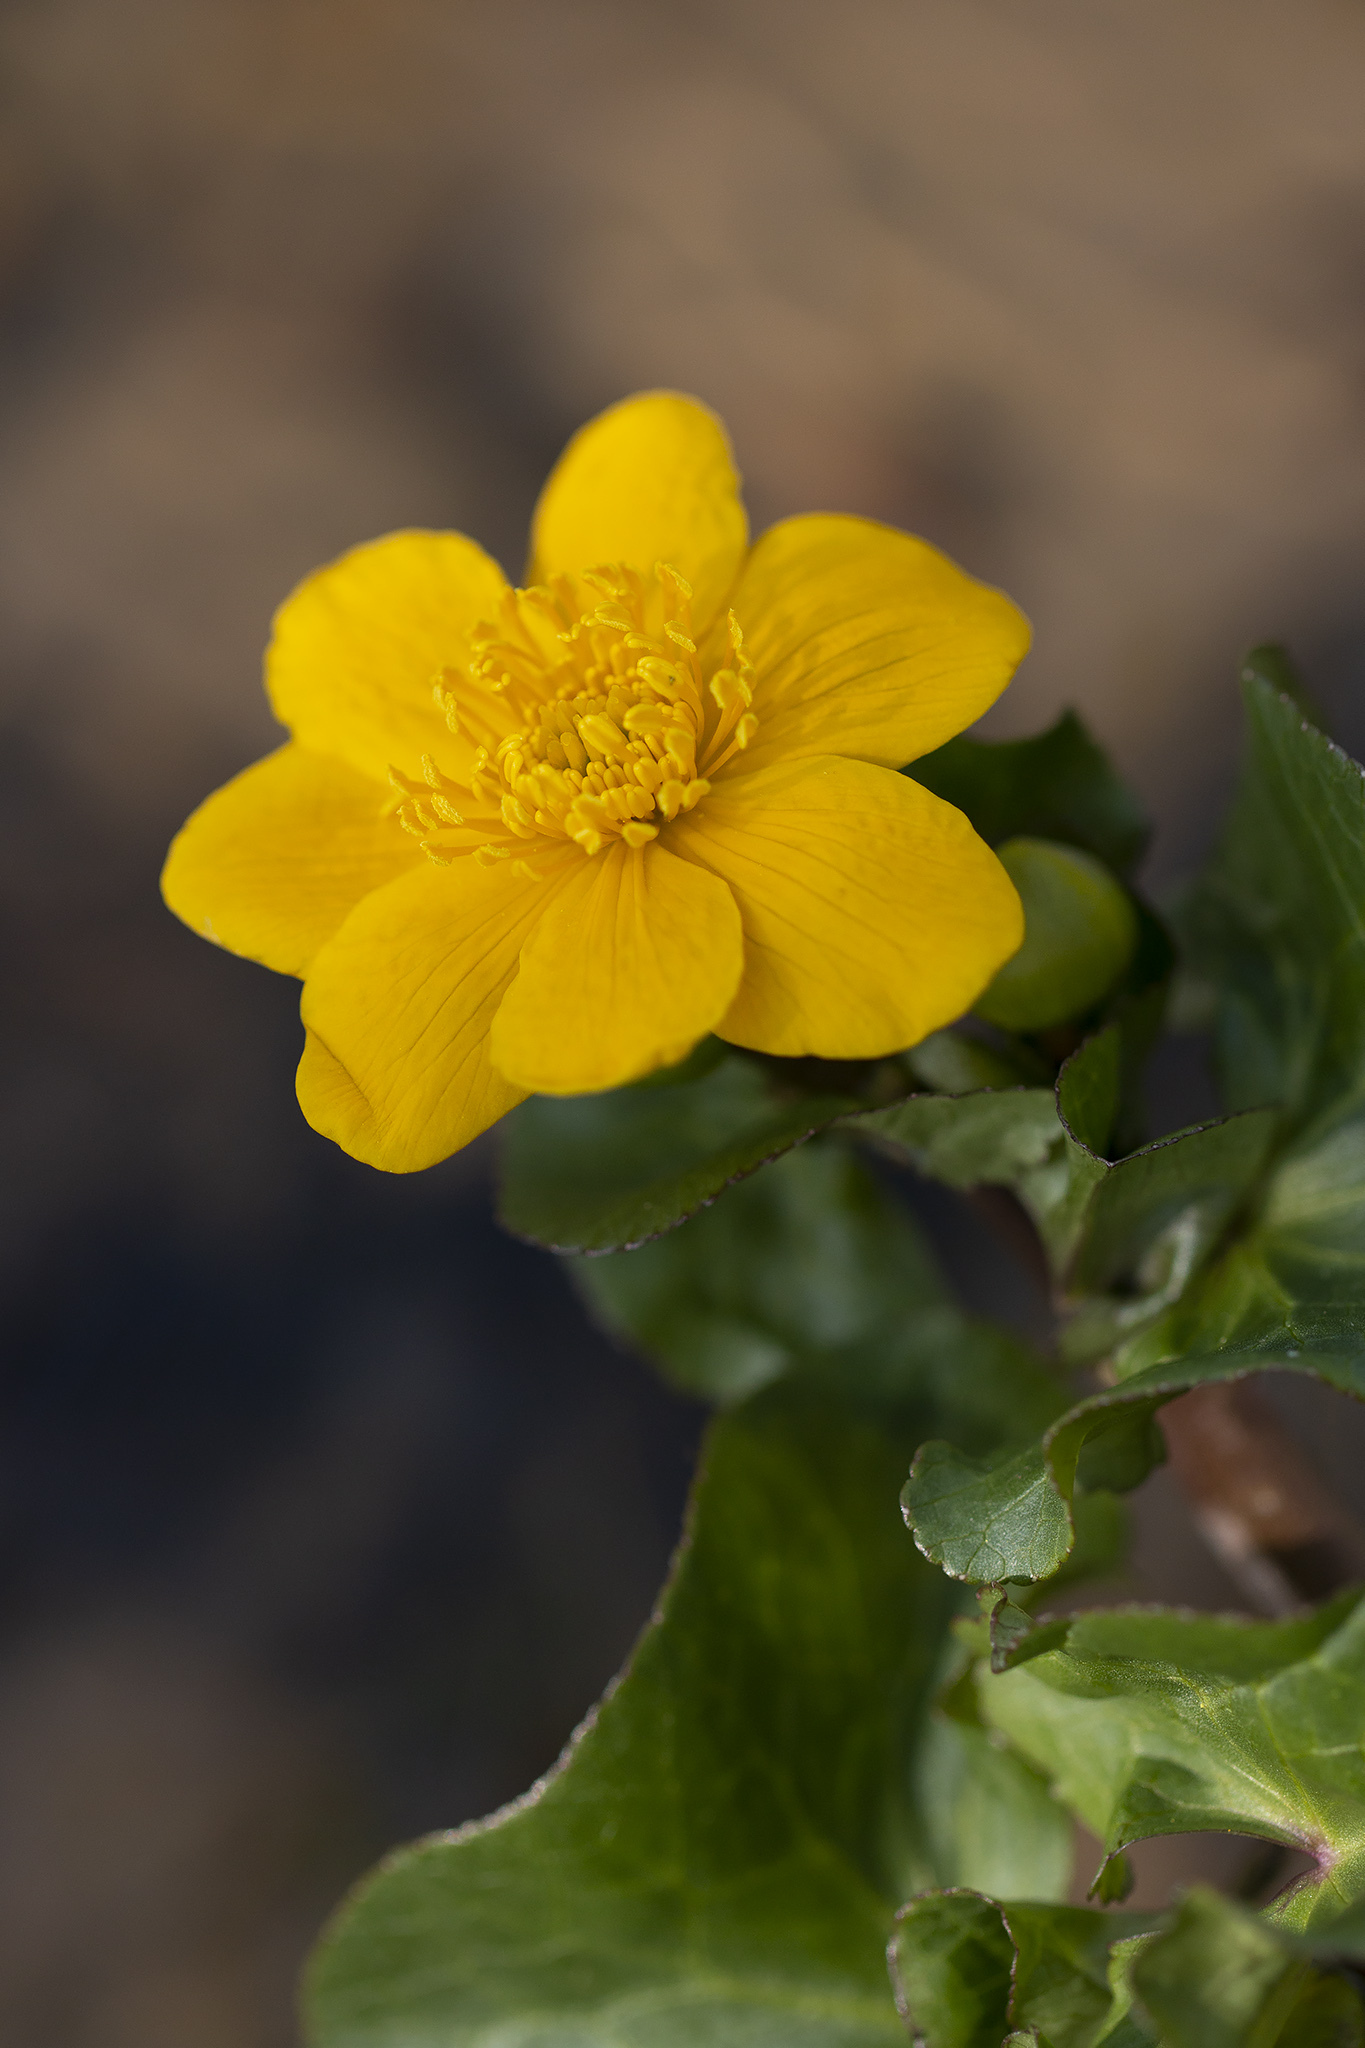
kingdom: Plantae
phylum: Tracheophyta
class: Magnoliopsida
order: Ranunculales
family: Ranunculaceae
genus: Caltha
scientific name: Caltha palustris
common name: Marsh marigold
